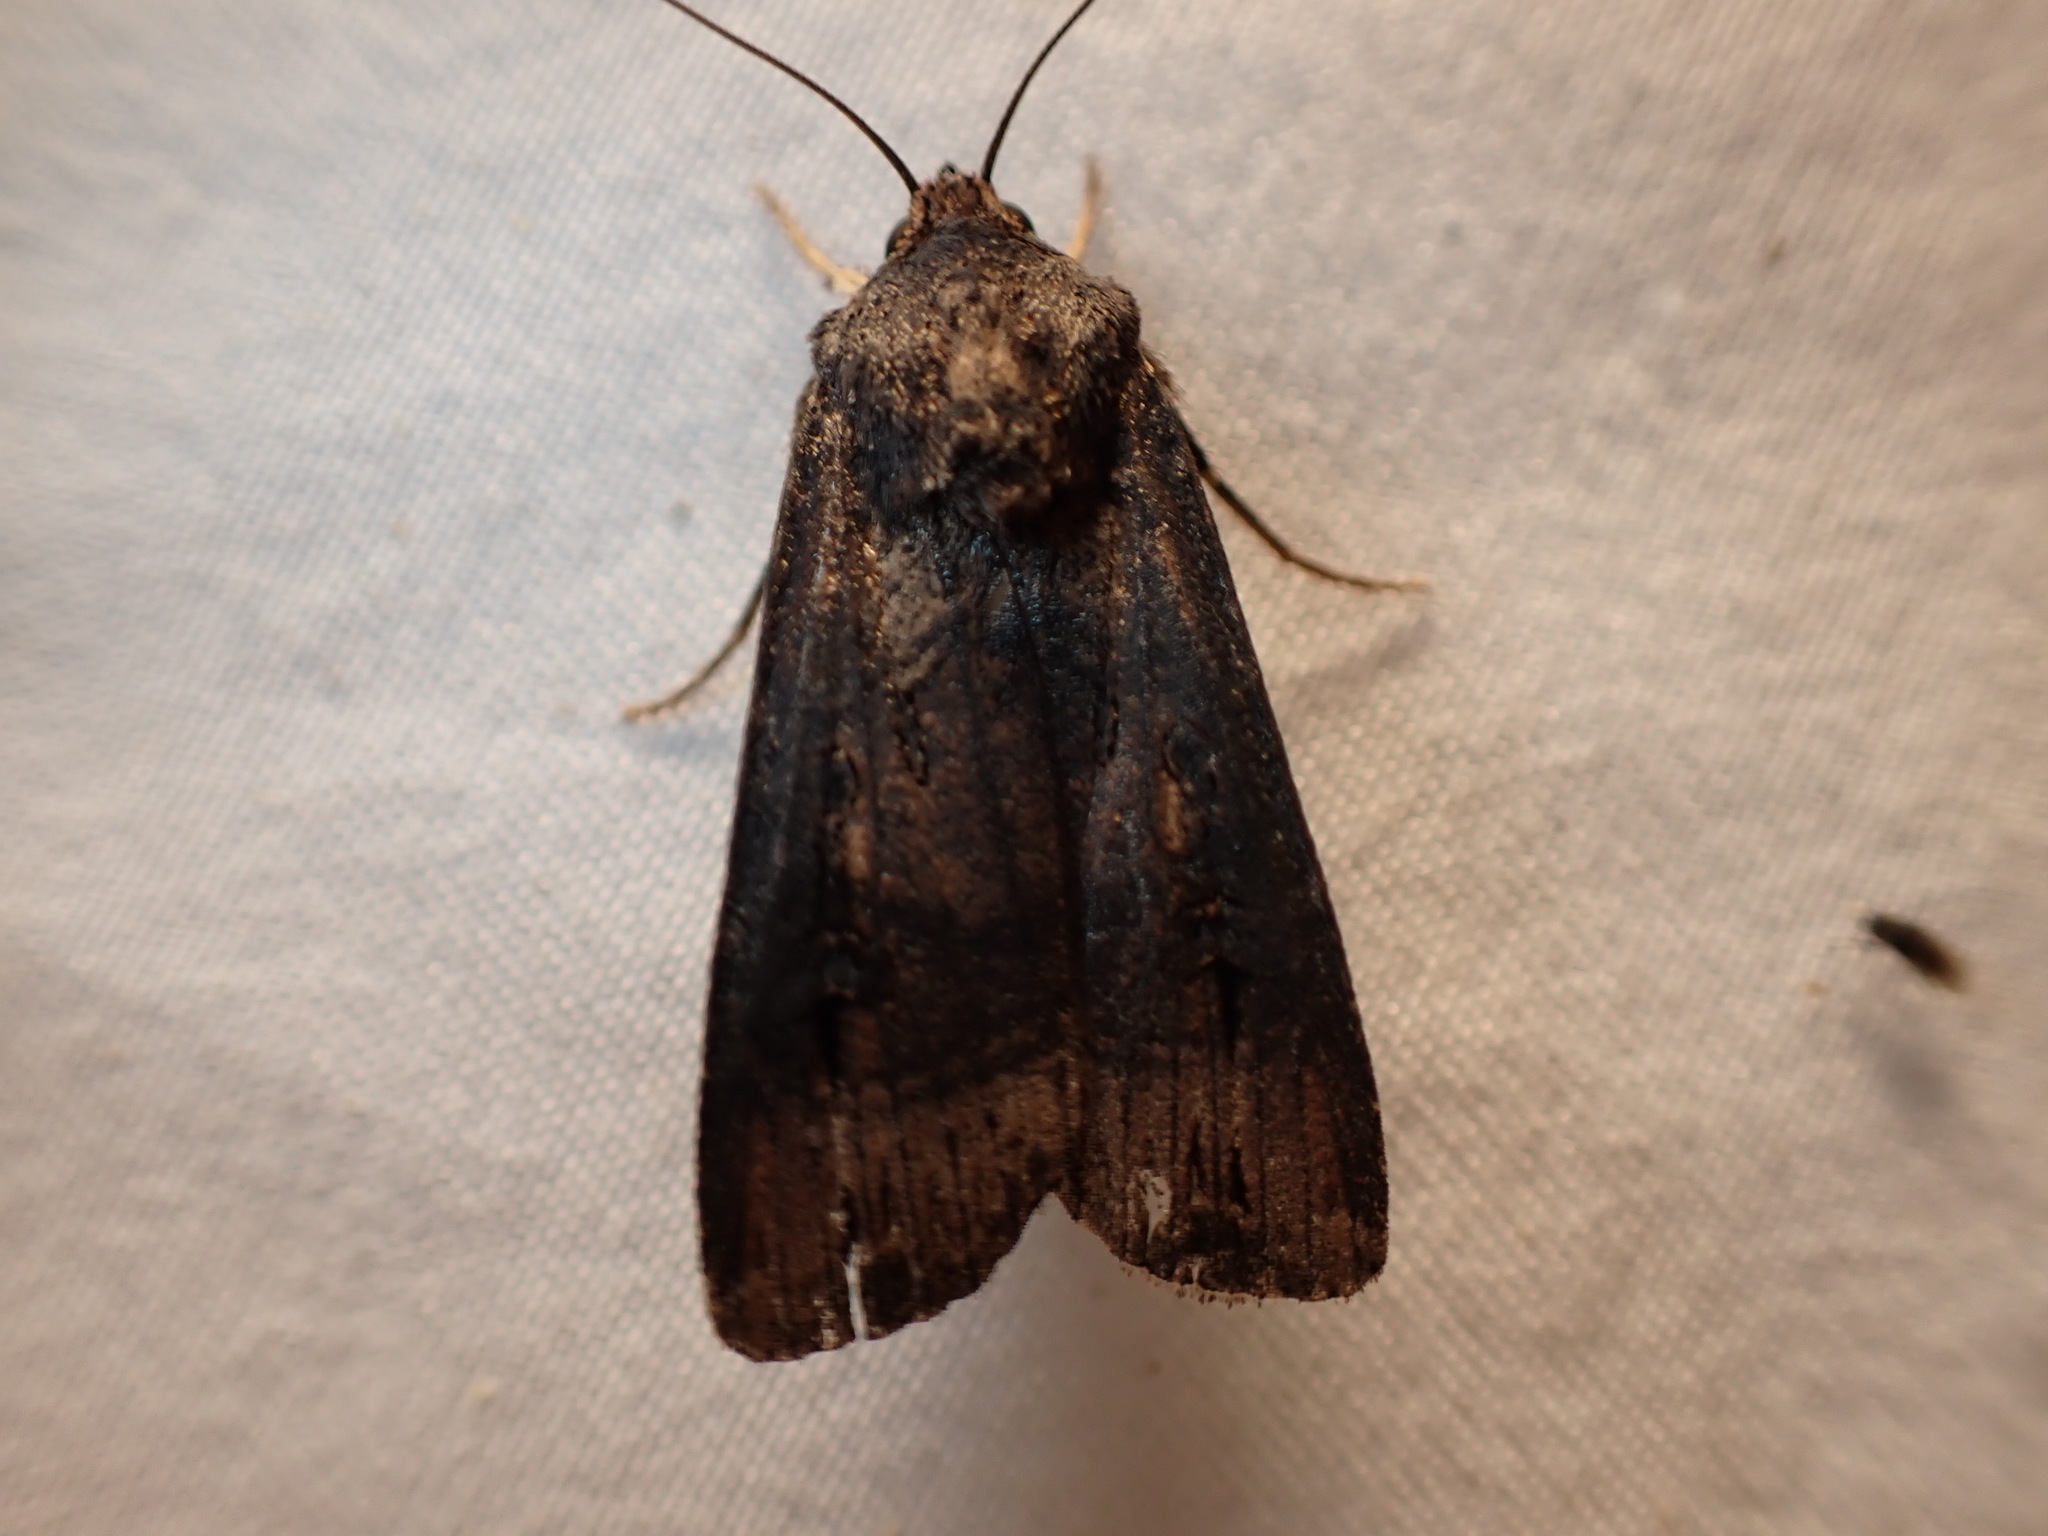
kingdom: Animalia
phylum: Arthropoda
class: Insecta
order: Lepidoptera
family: Noctuidae
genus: Agrotis
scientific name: Agrotis ipsilon
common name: Dark sword-grass
